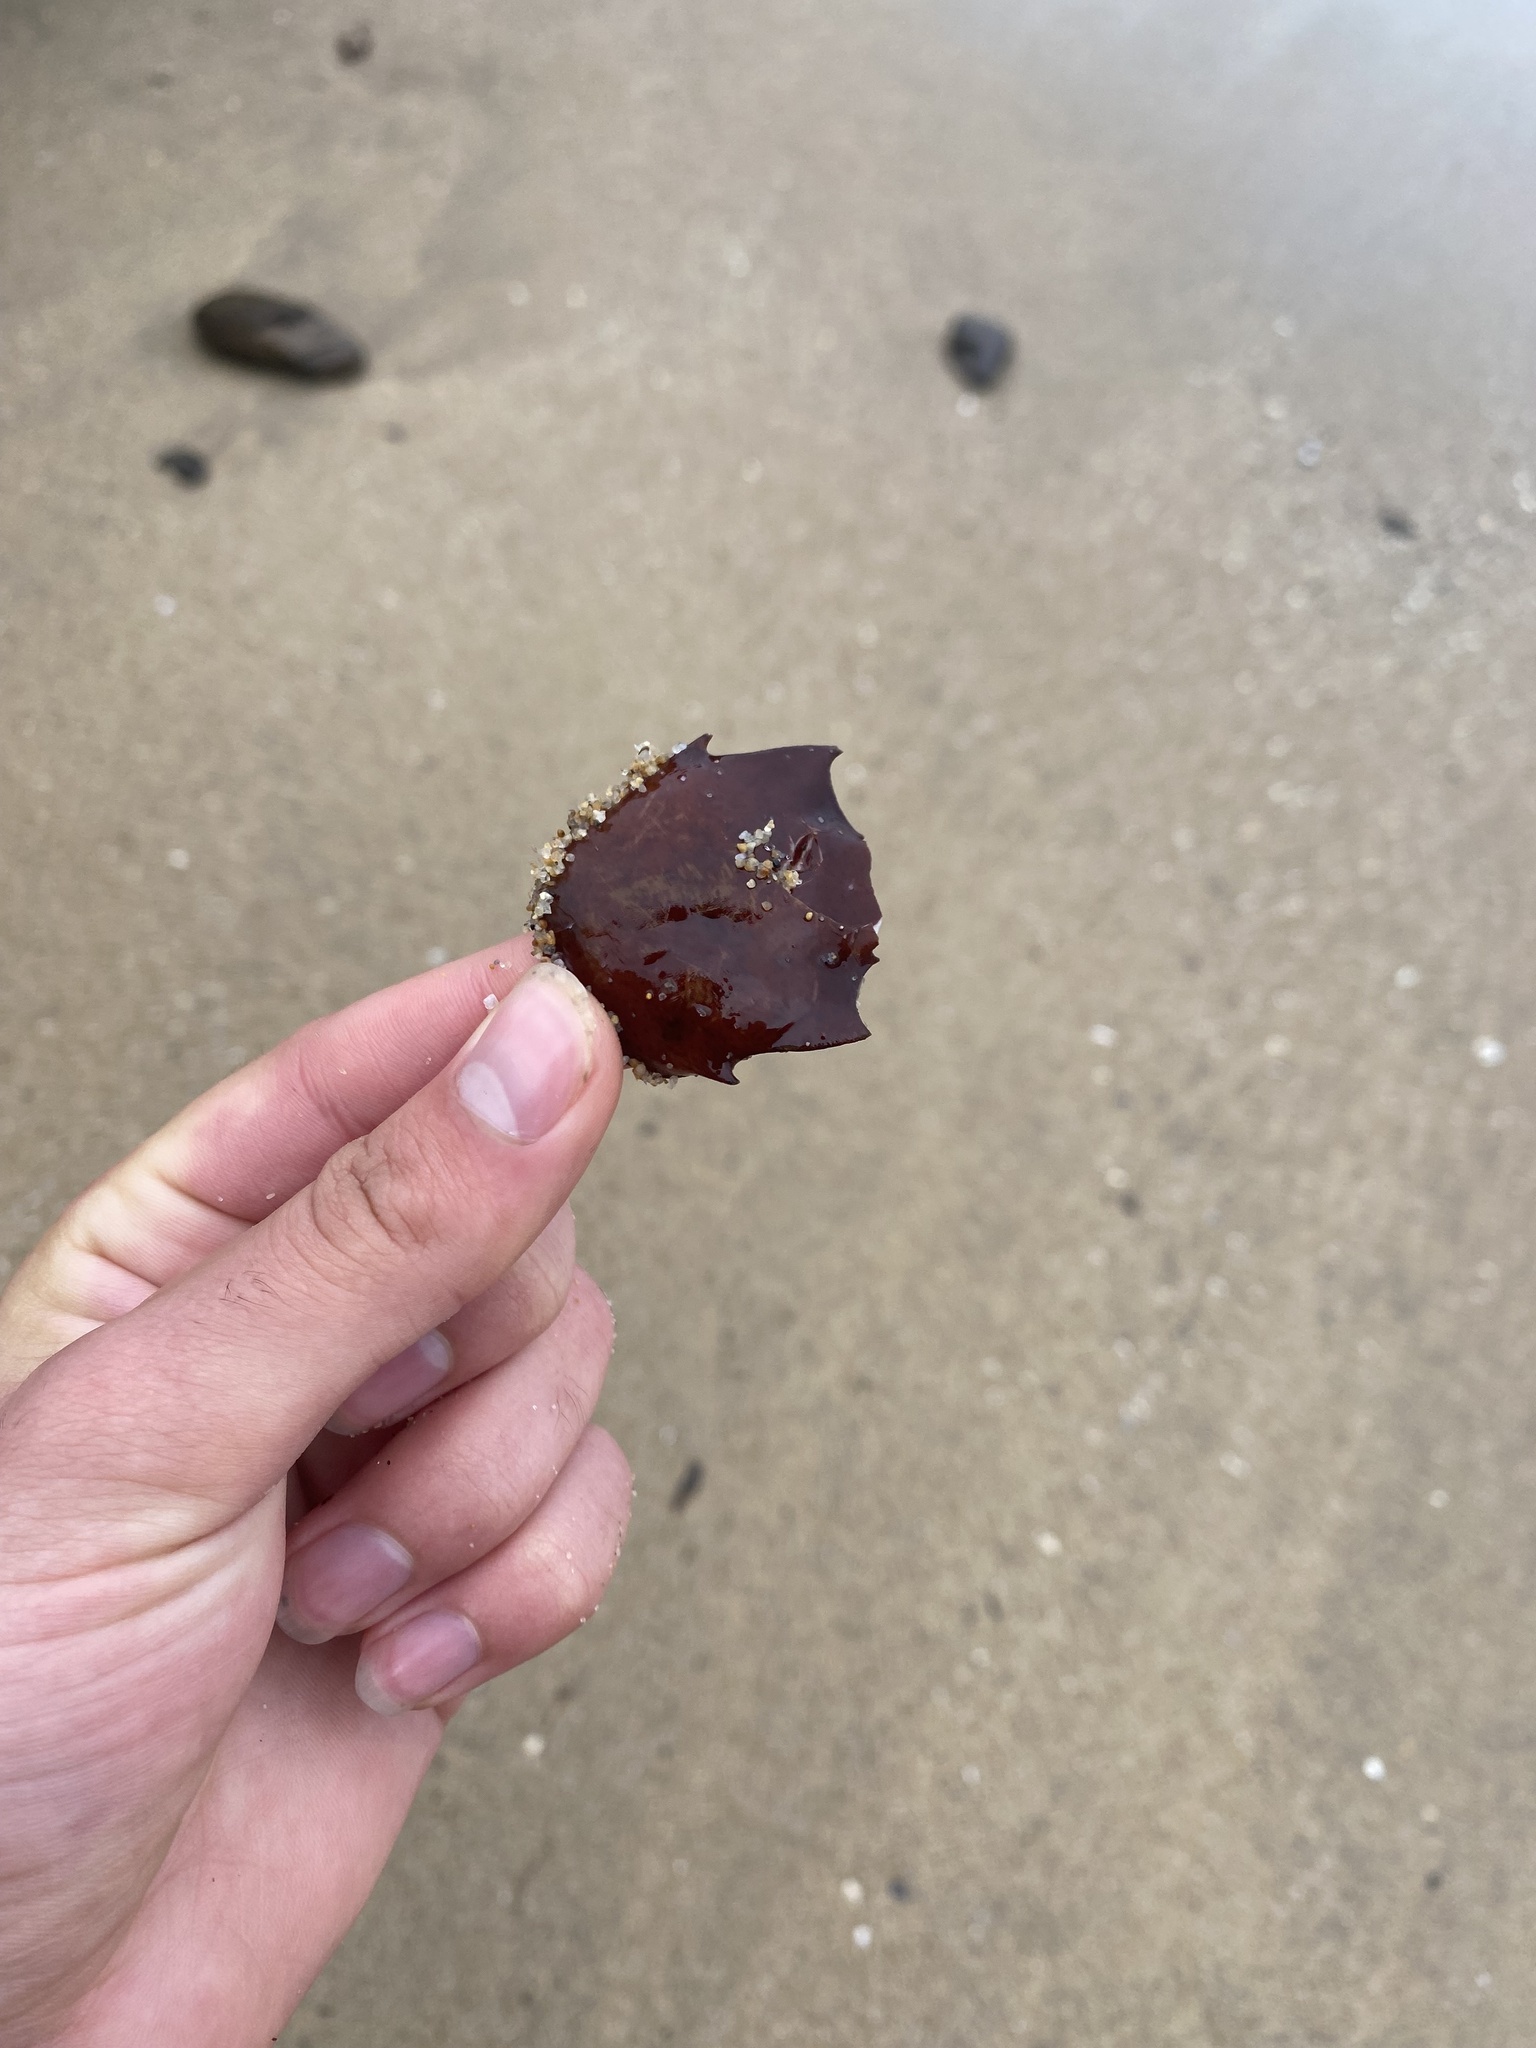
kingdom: Animalia
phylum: Arthropoda
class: Malacostraca
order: Decapoda
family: Epialtidae
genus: Pugettia
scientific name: Pugettia producta
